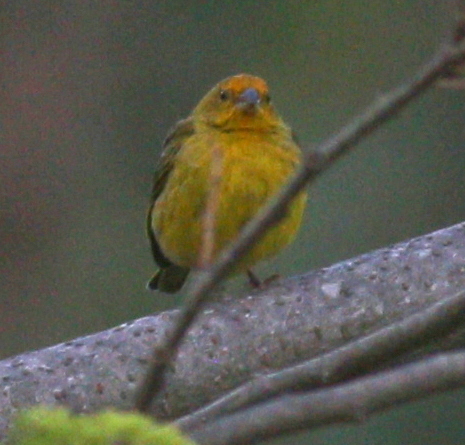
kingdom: Animalia
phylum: Chordata
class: Aves
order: Passeriformes
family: Thraupidae
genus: Sicalis
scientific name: Sicalis flaveola
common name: Saffron finch
